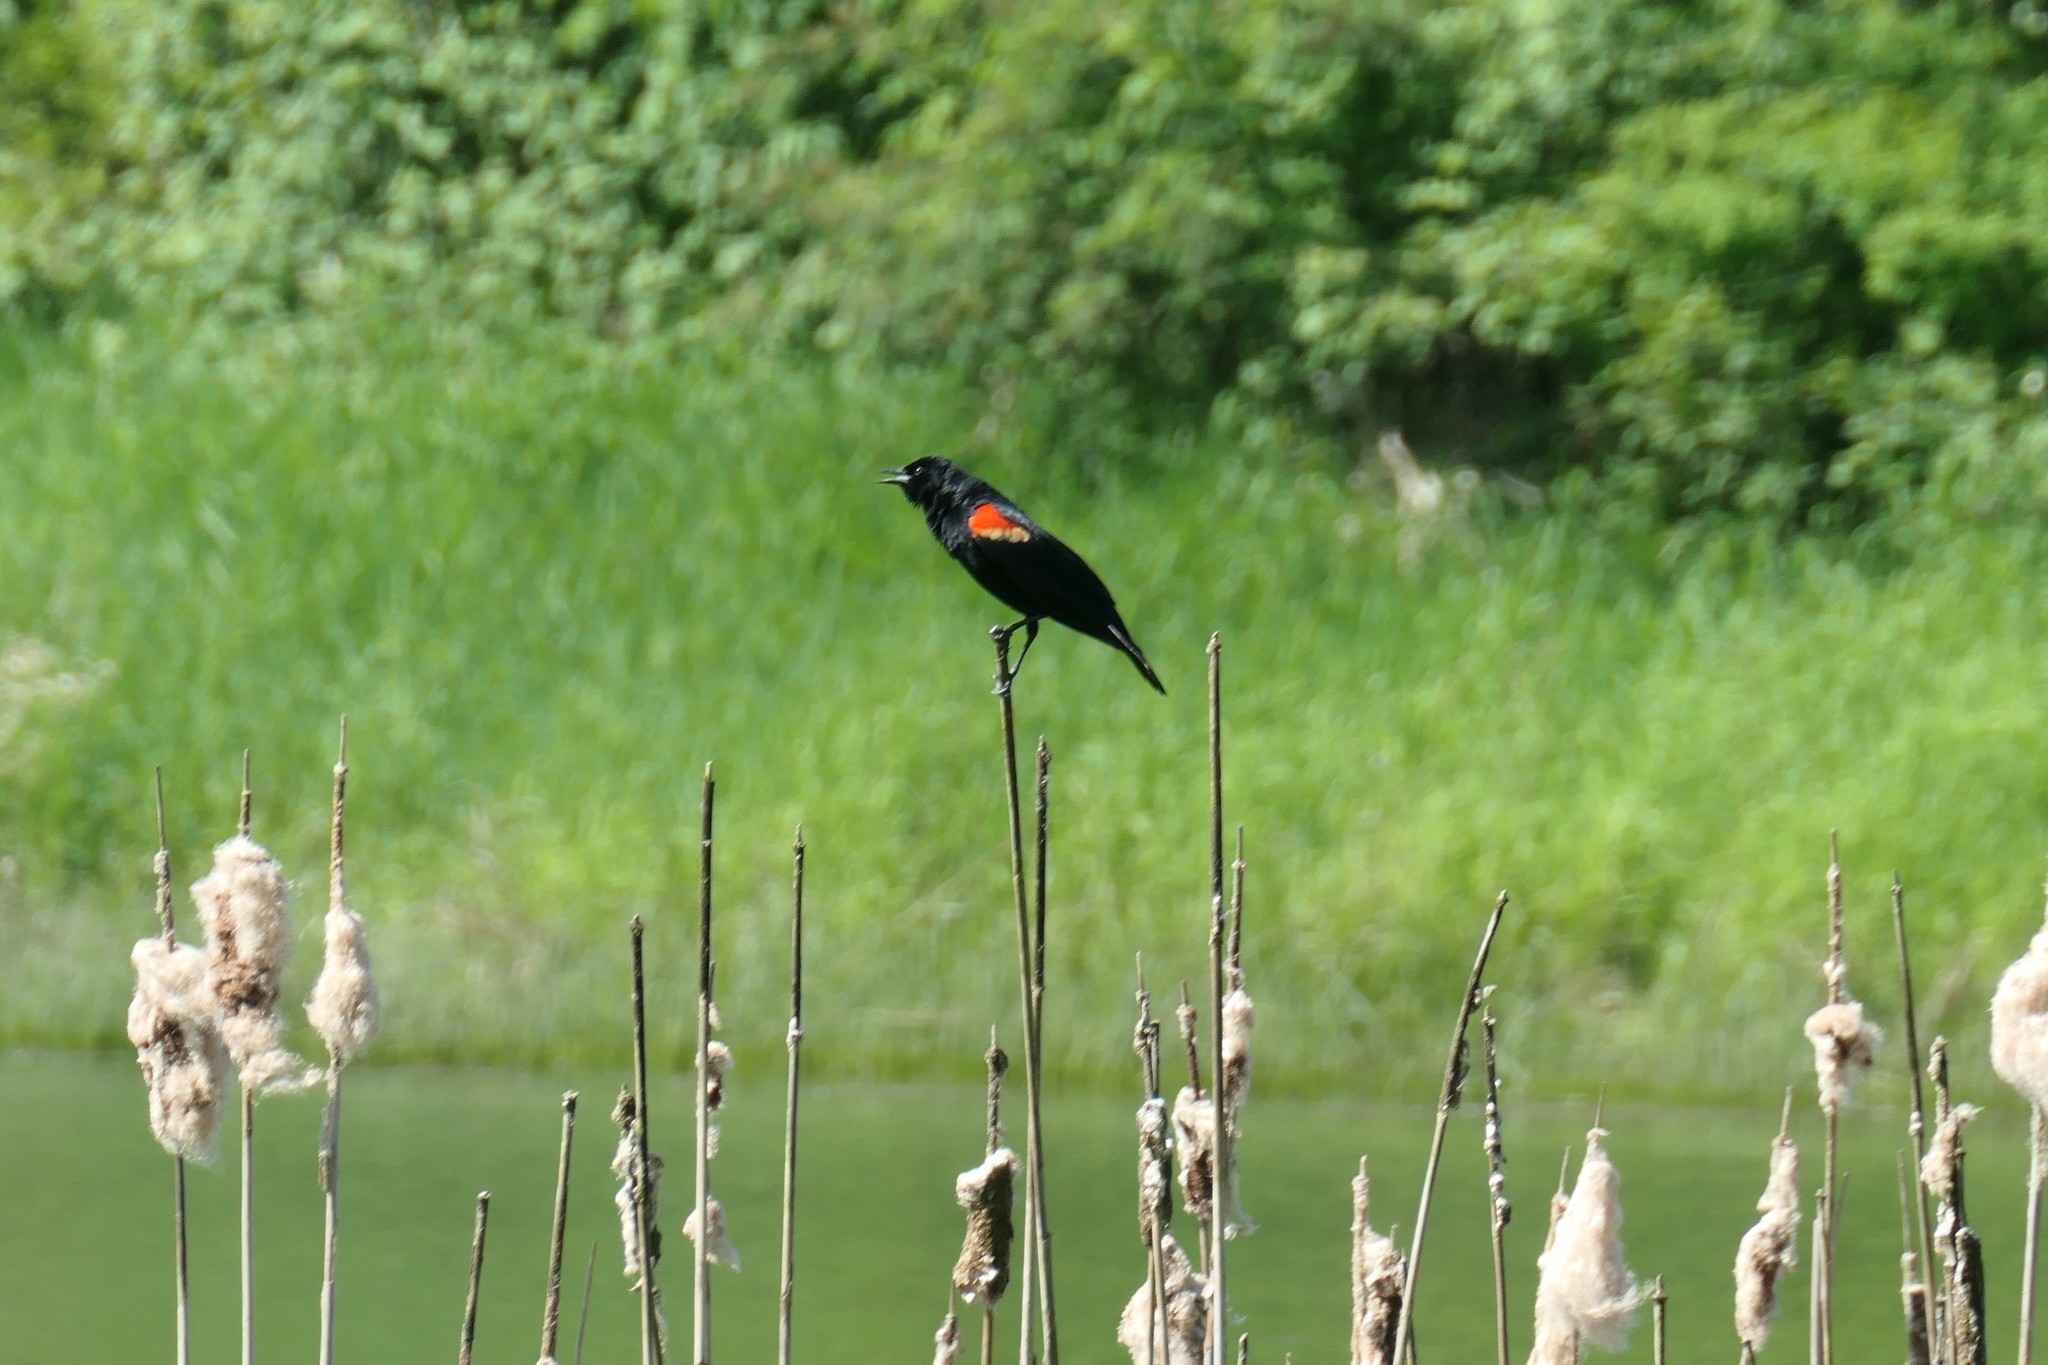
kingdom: Animalia
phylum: Chordata
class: Aves
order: Passeriformes
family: Icteridae
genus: Agelaius
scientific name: Agelaius phoeniceus
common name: Red-winged blackbird
